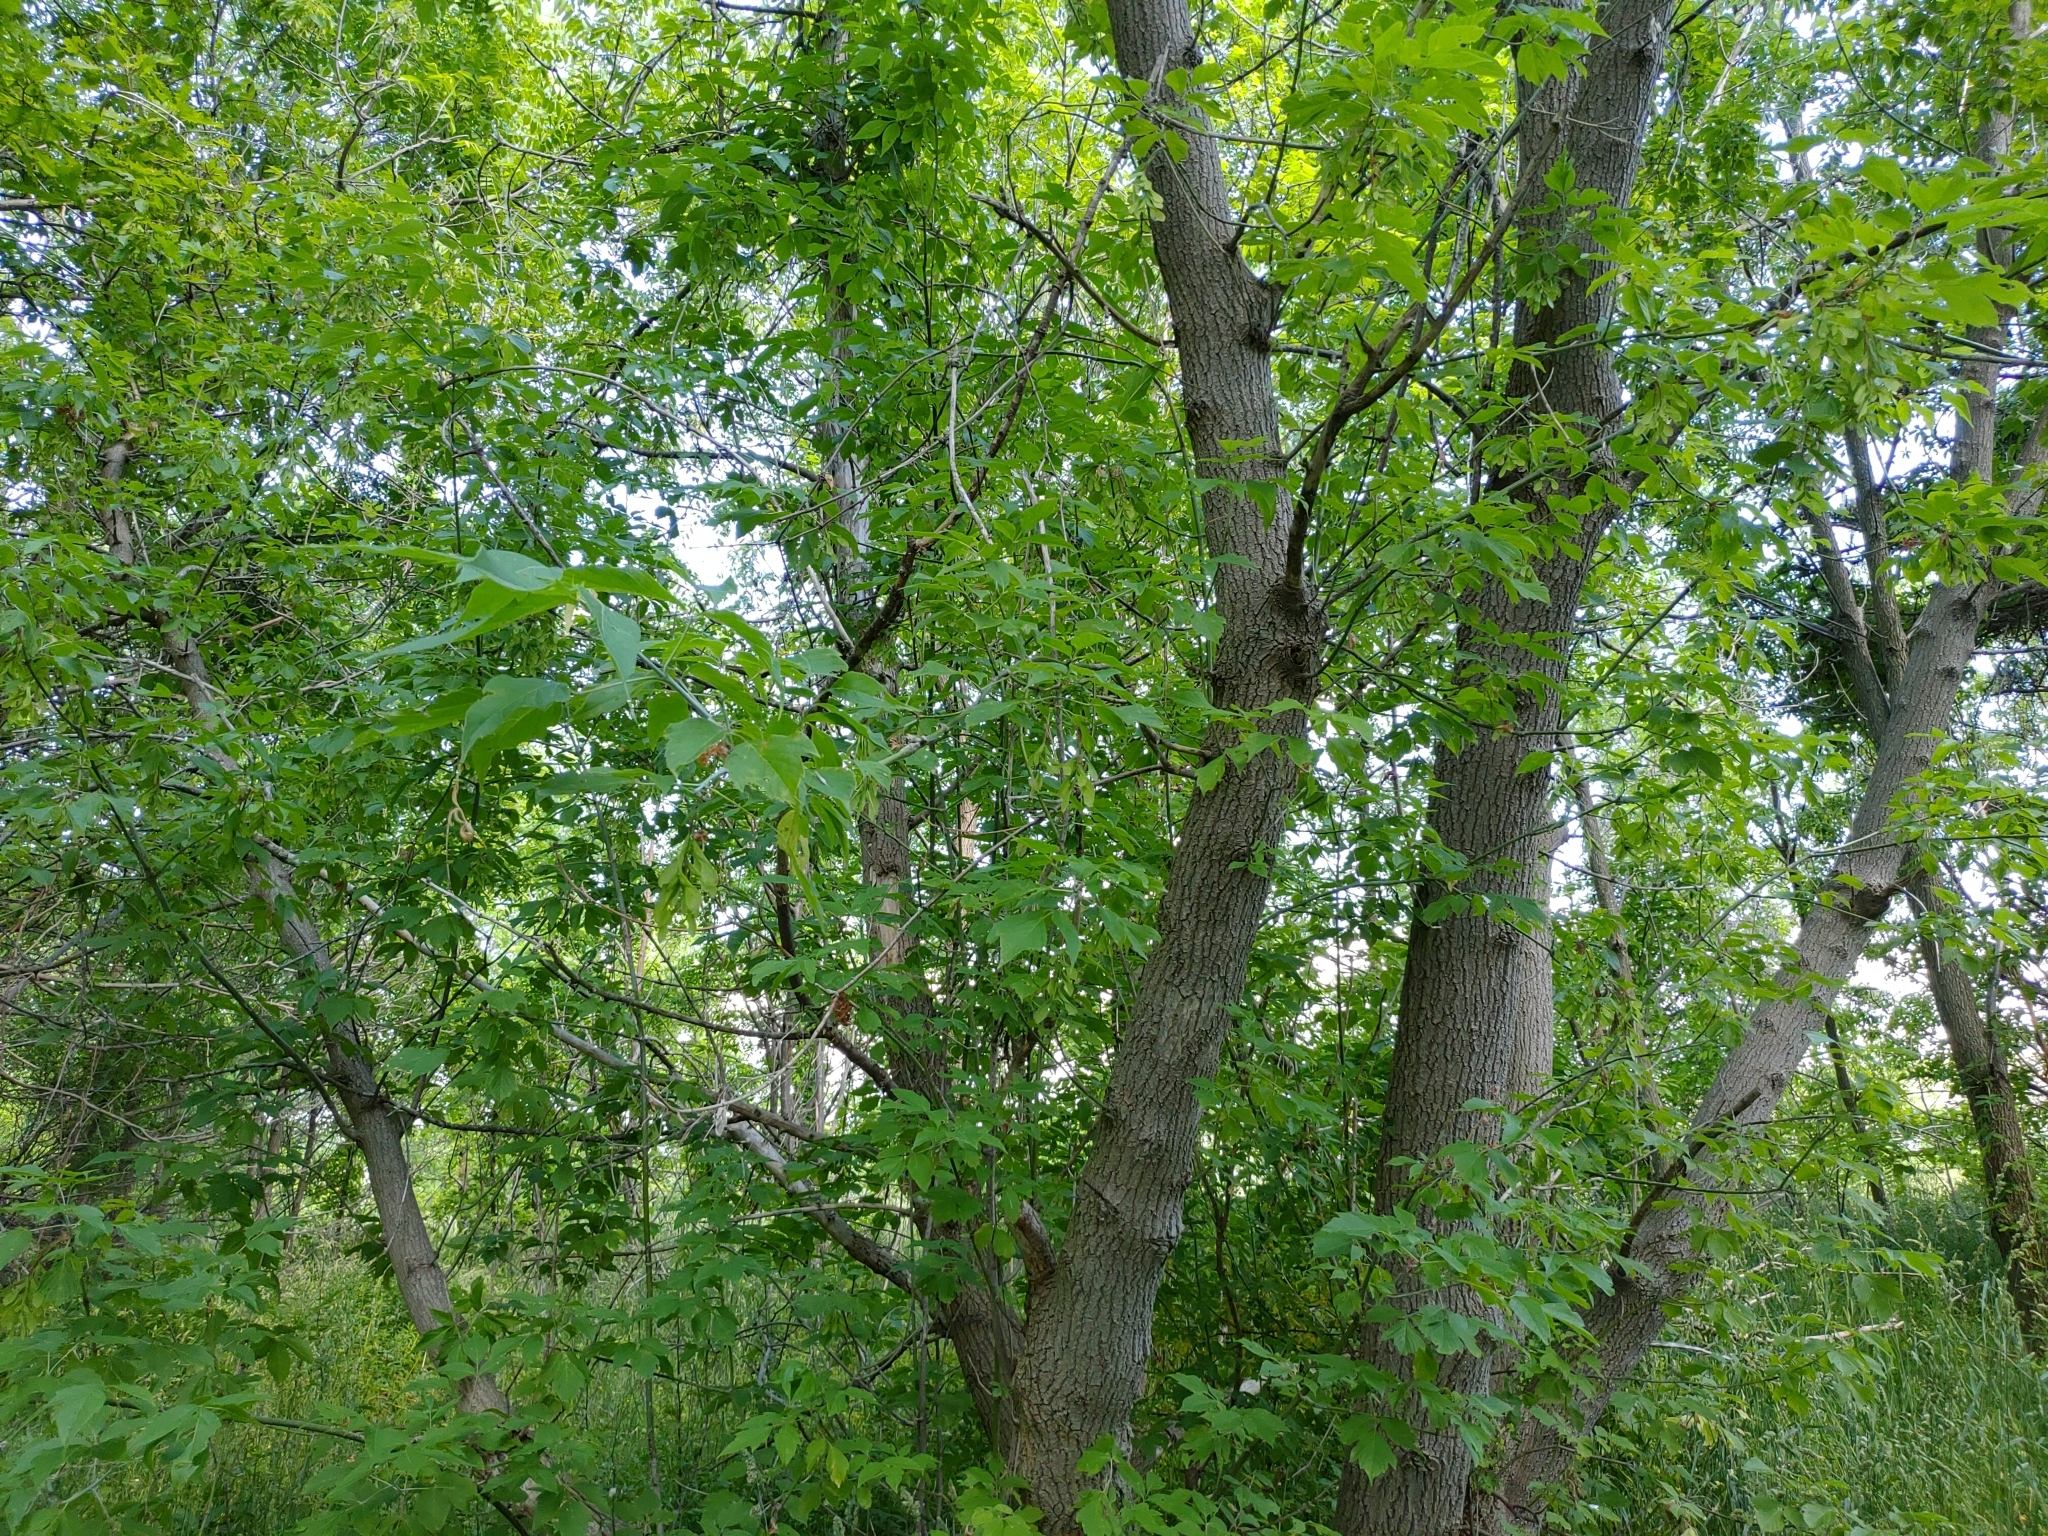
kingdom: Plantae
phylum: Tracheophyta
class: Magnoliopsida
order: Sapindales
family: Sapindaceae
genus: Acer
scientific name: Acer negundo
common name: Ashleaf maple
